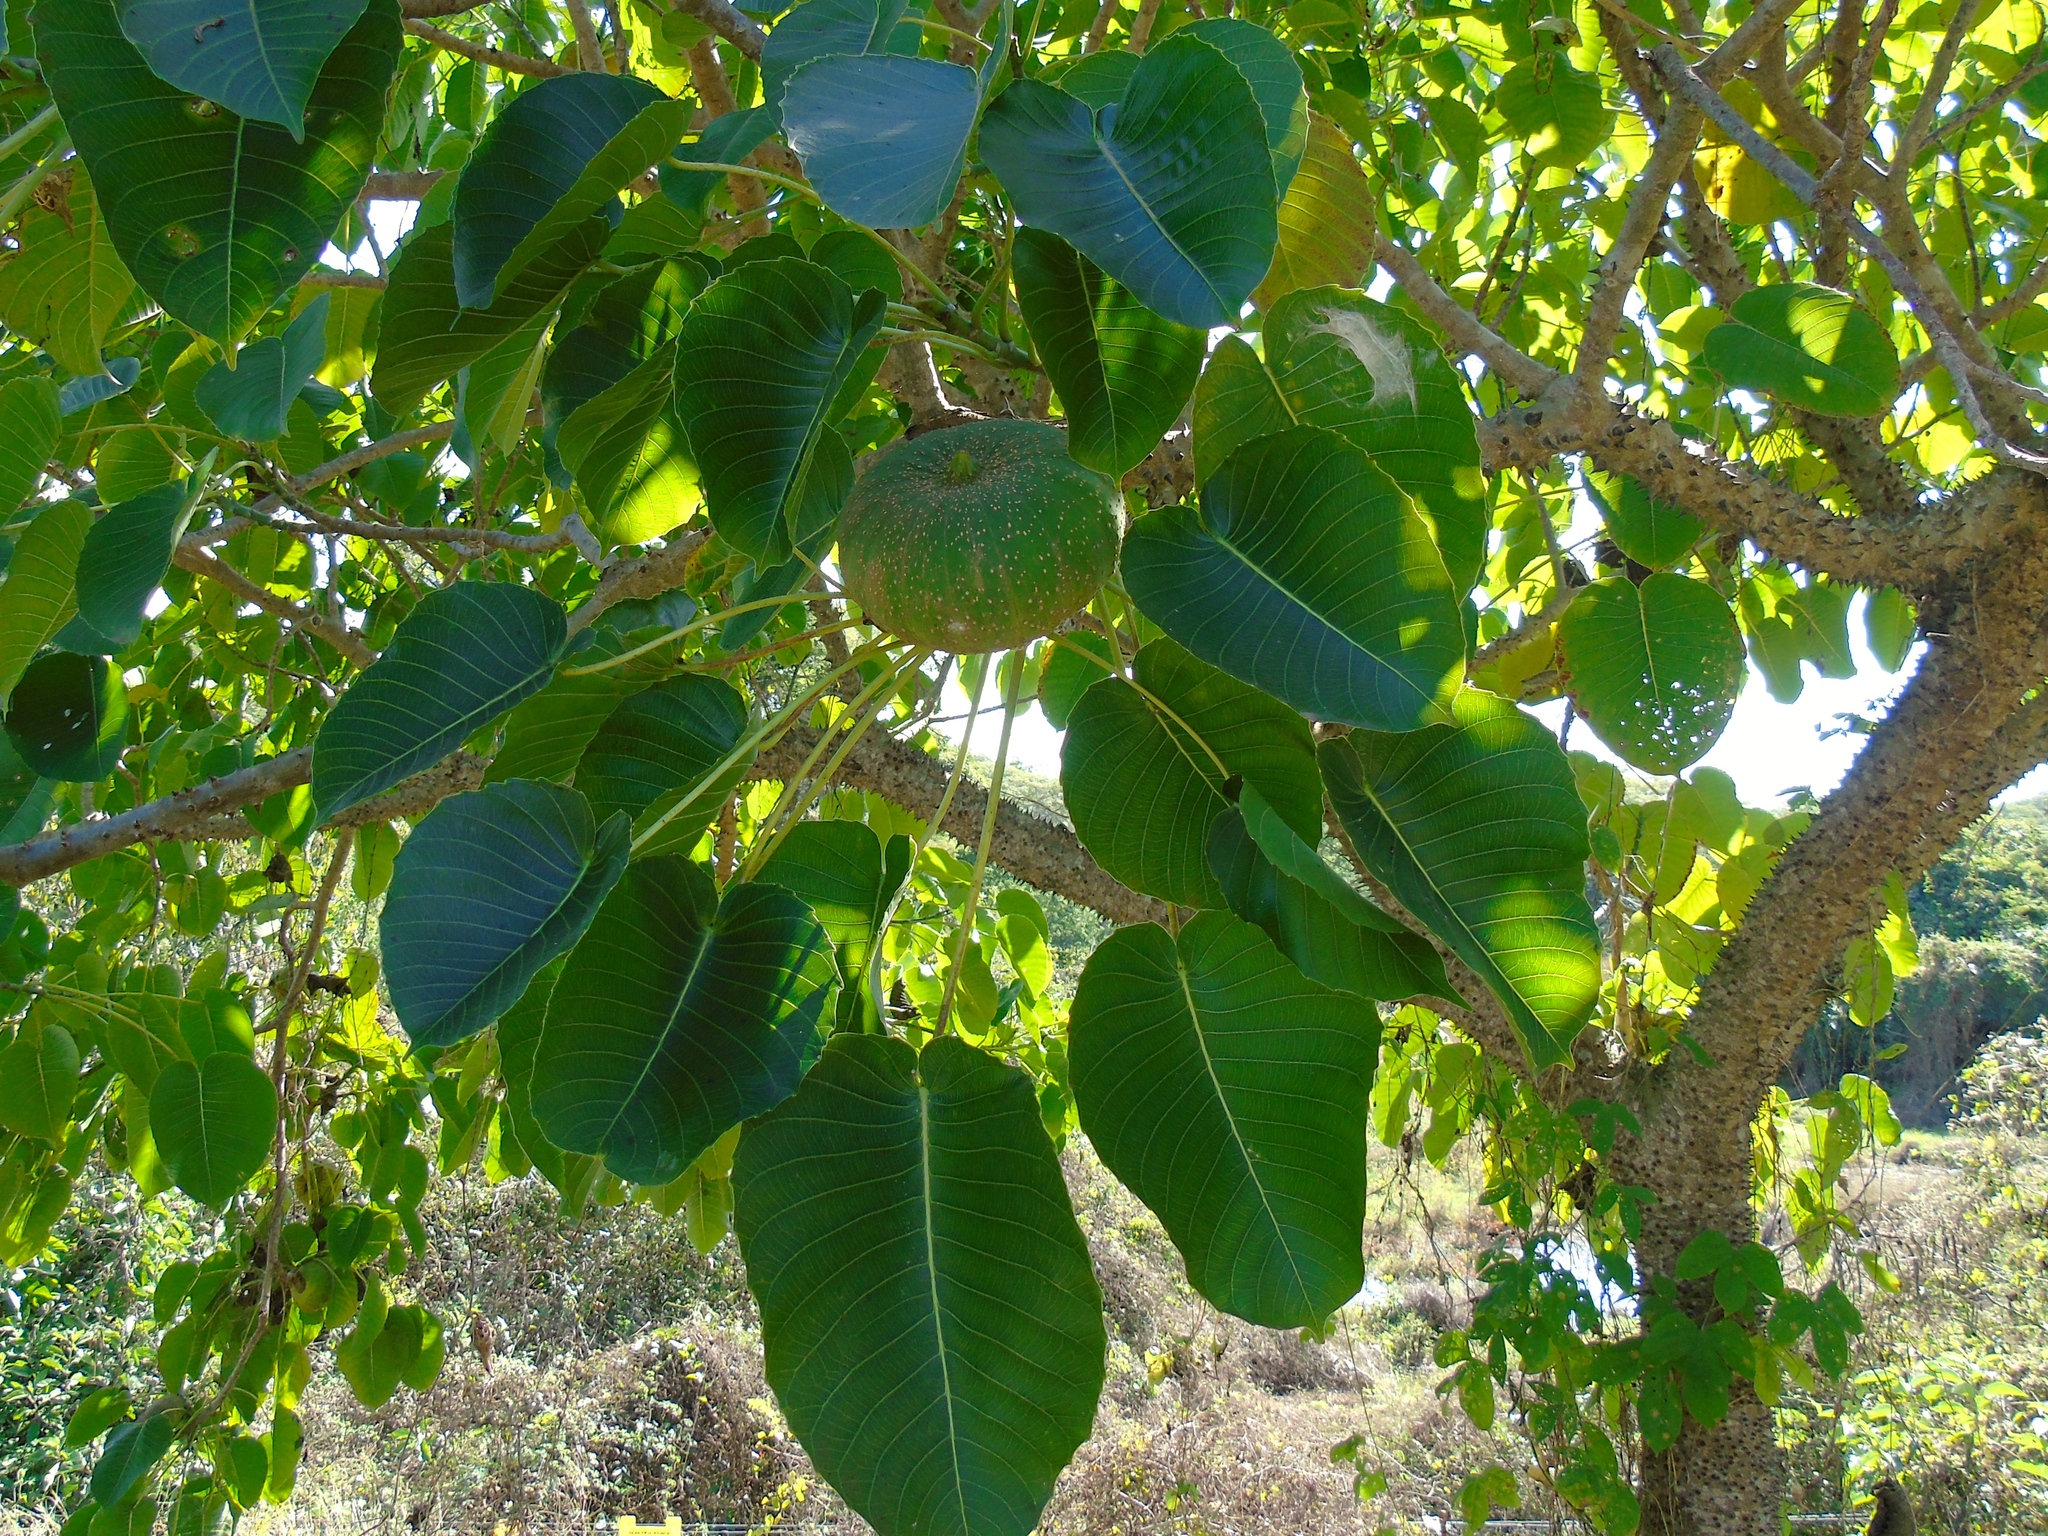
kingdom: Plantae
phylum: Tracheophyta
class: Magnoliopsida
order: Malpighiales
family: Euphorbiaceae
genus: Hura
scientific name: Hura polyandra
